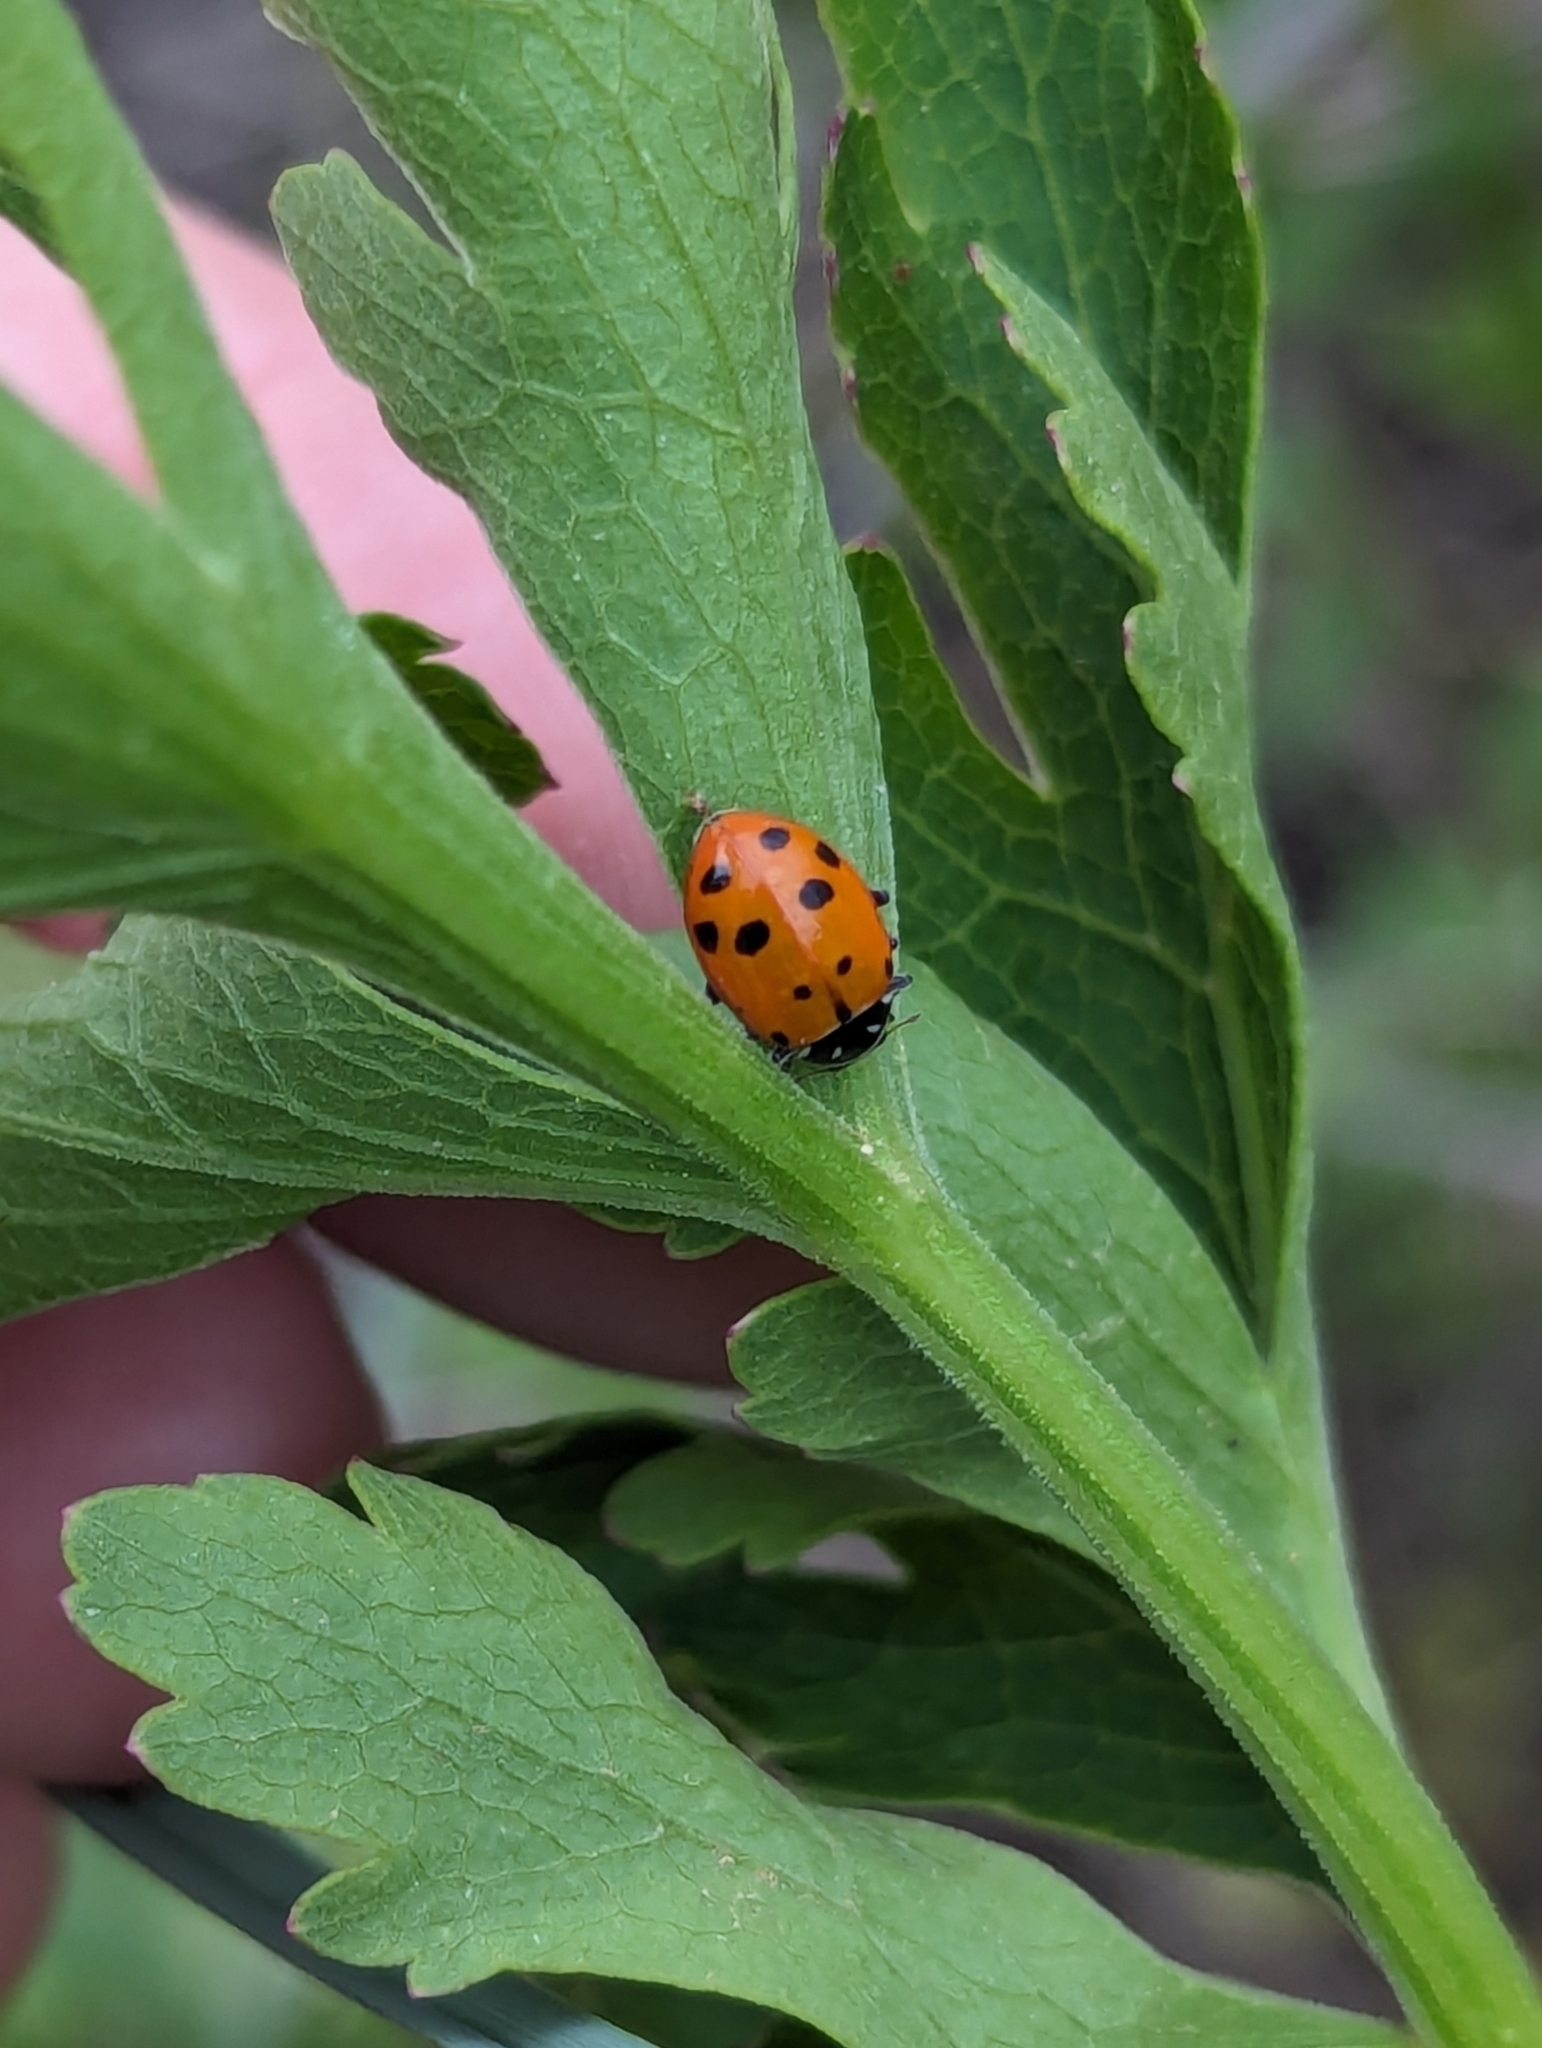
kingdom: Animalia
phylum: Arthropoda
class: Insecta
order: Coleoptera
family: Coccinellidae
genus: Hippodamia
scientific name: Hippodamia convergens
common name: Convergent lady beetle
